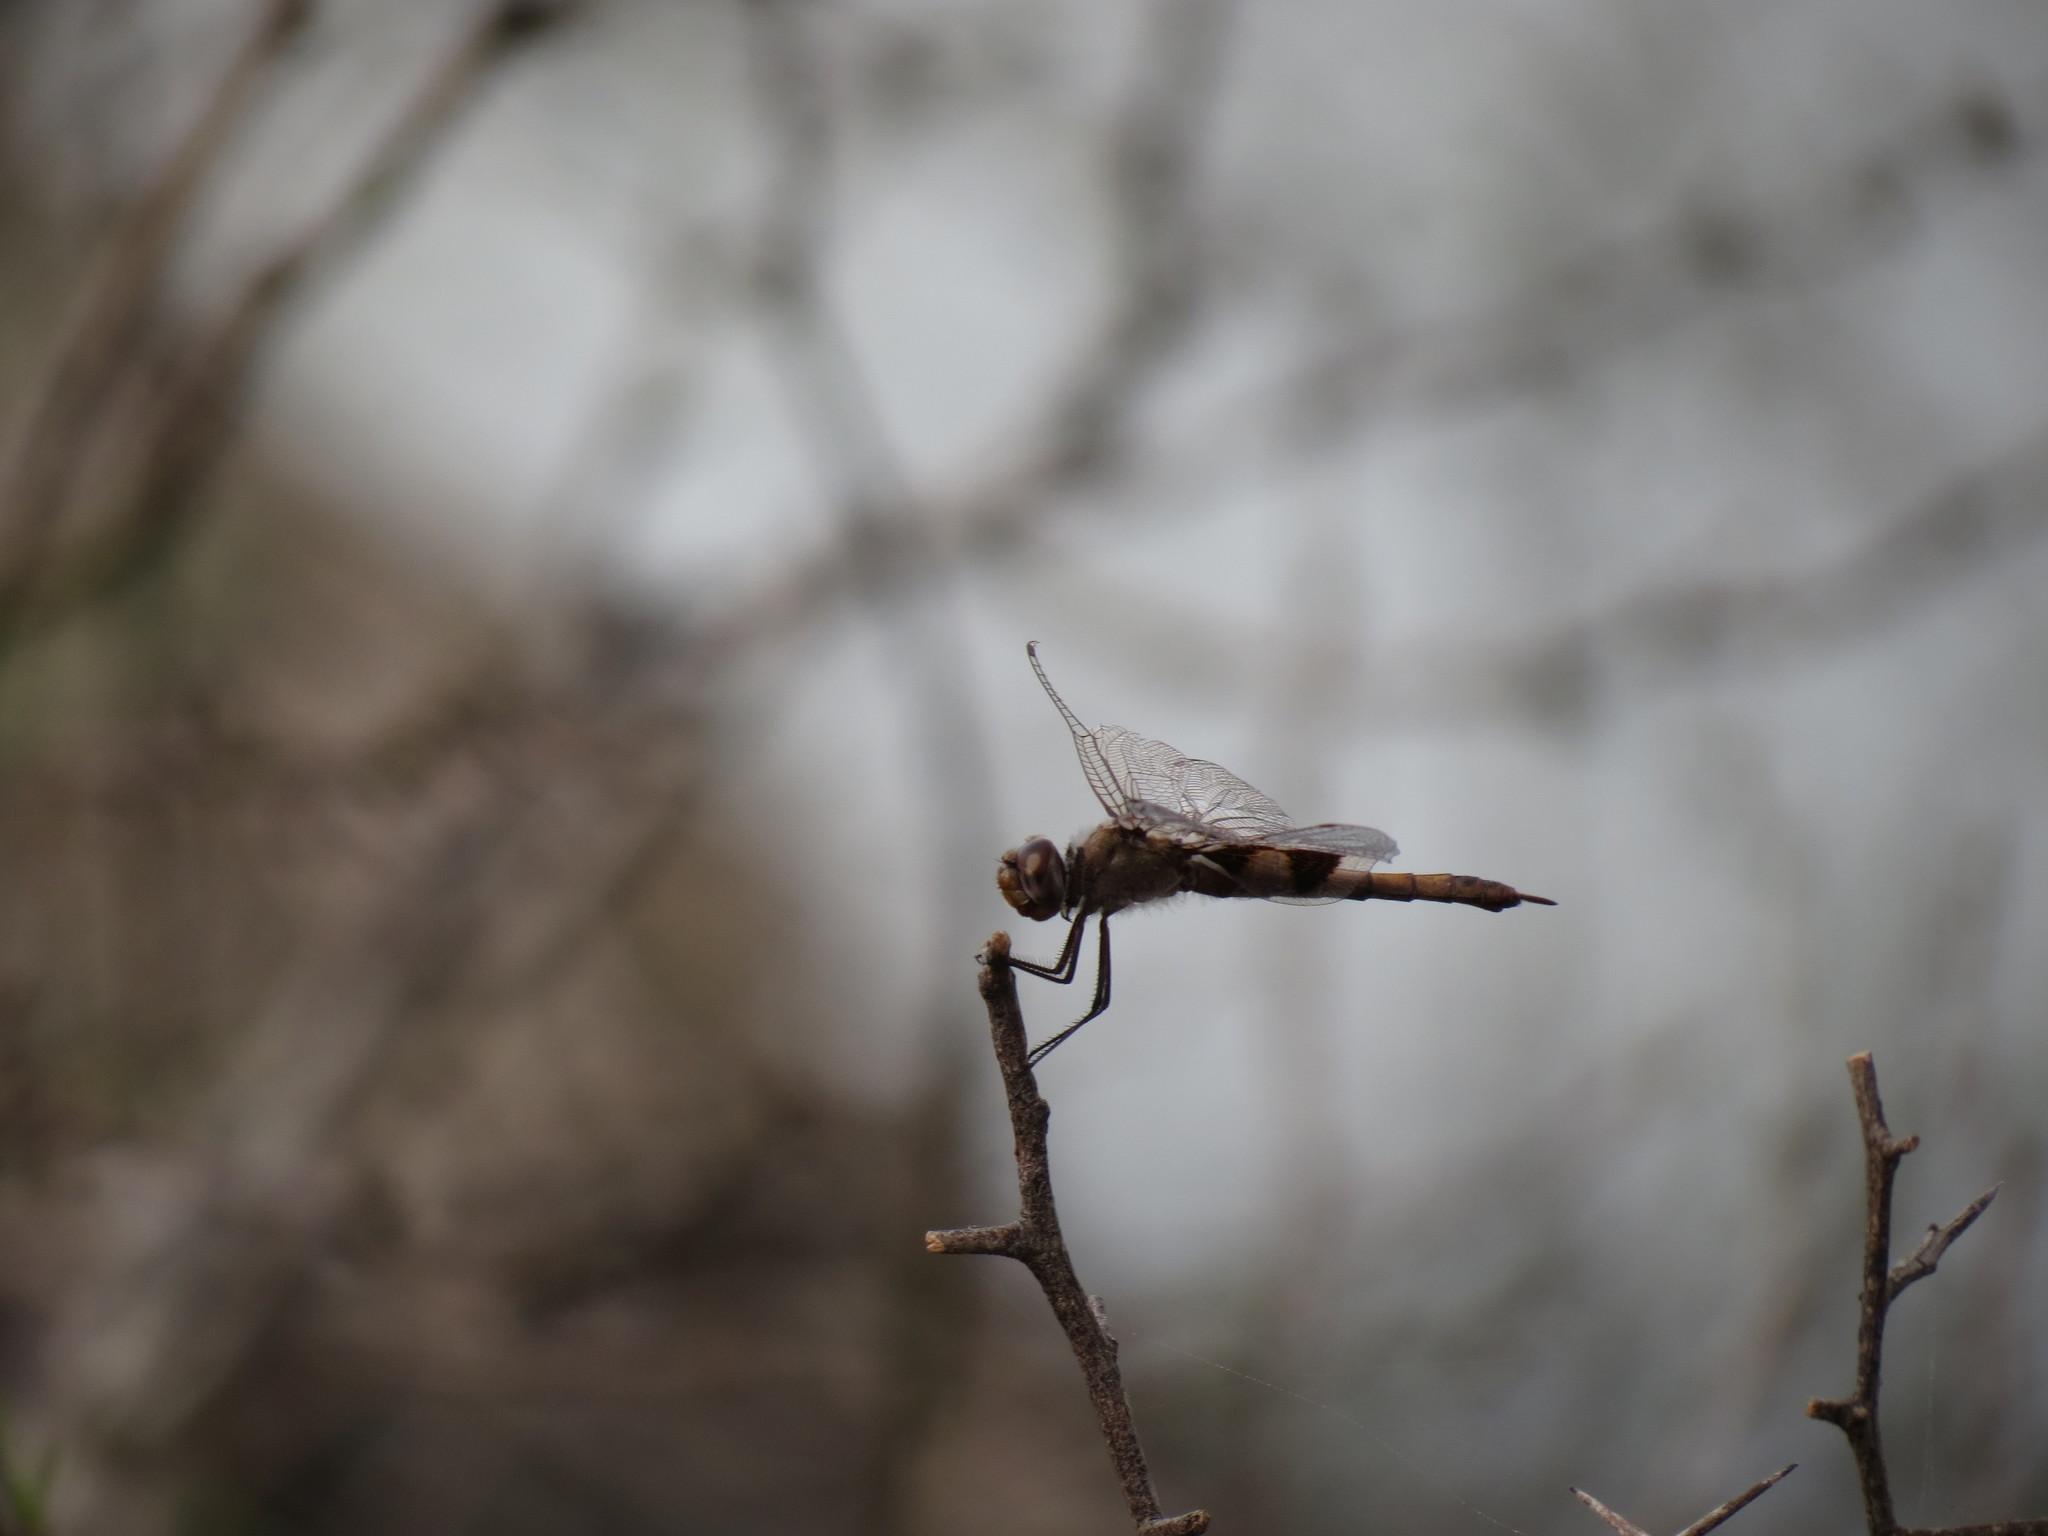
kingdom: Animalia
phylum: Arthropoda
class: Insecta
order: Odonata
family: Libellulidae
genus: Tramea
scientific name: Tramea onusta
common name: Red saddlebags
